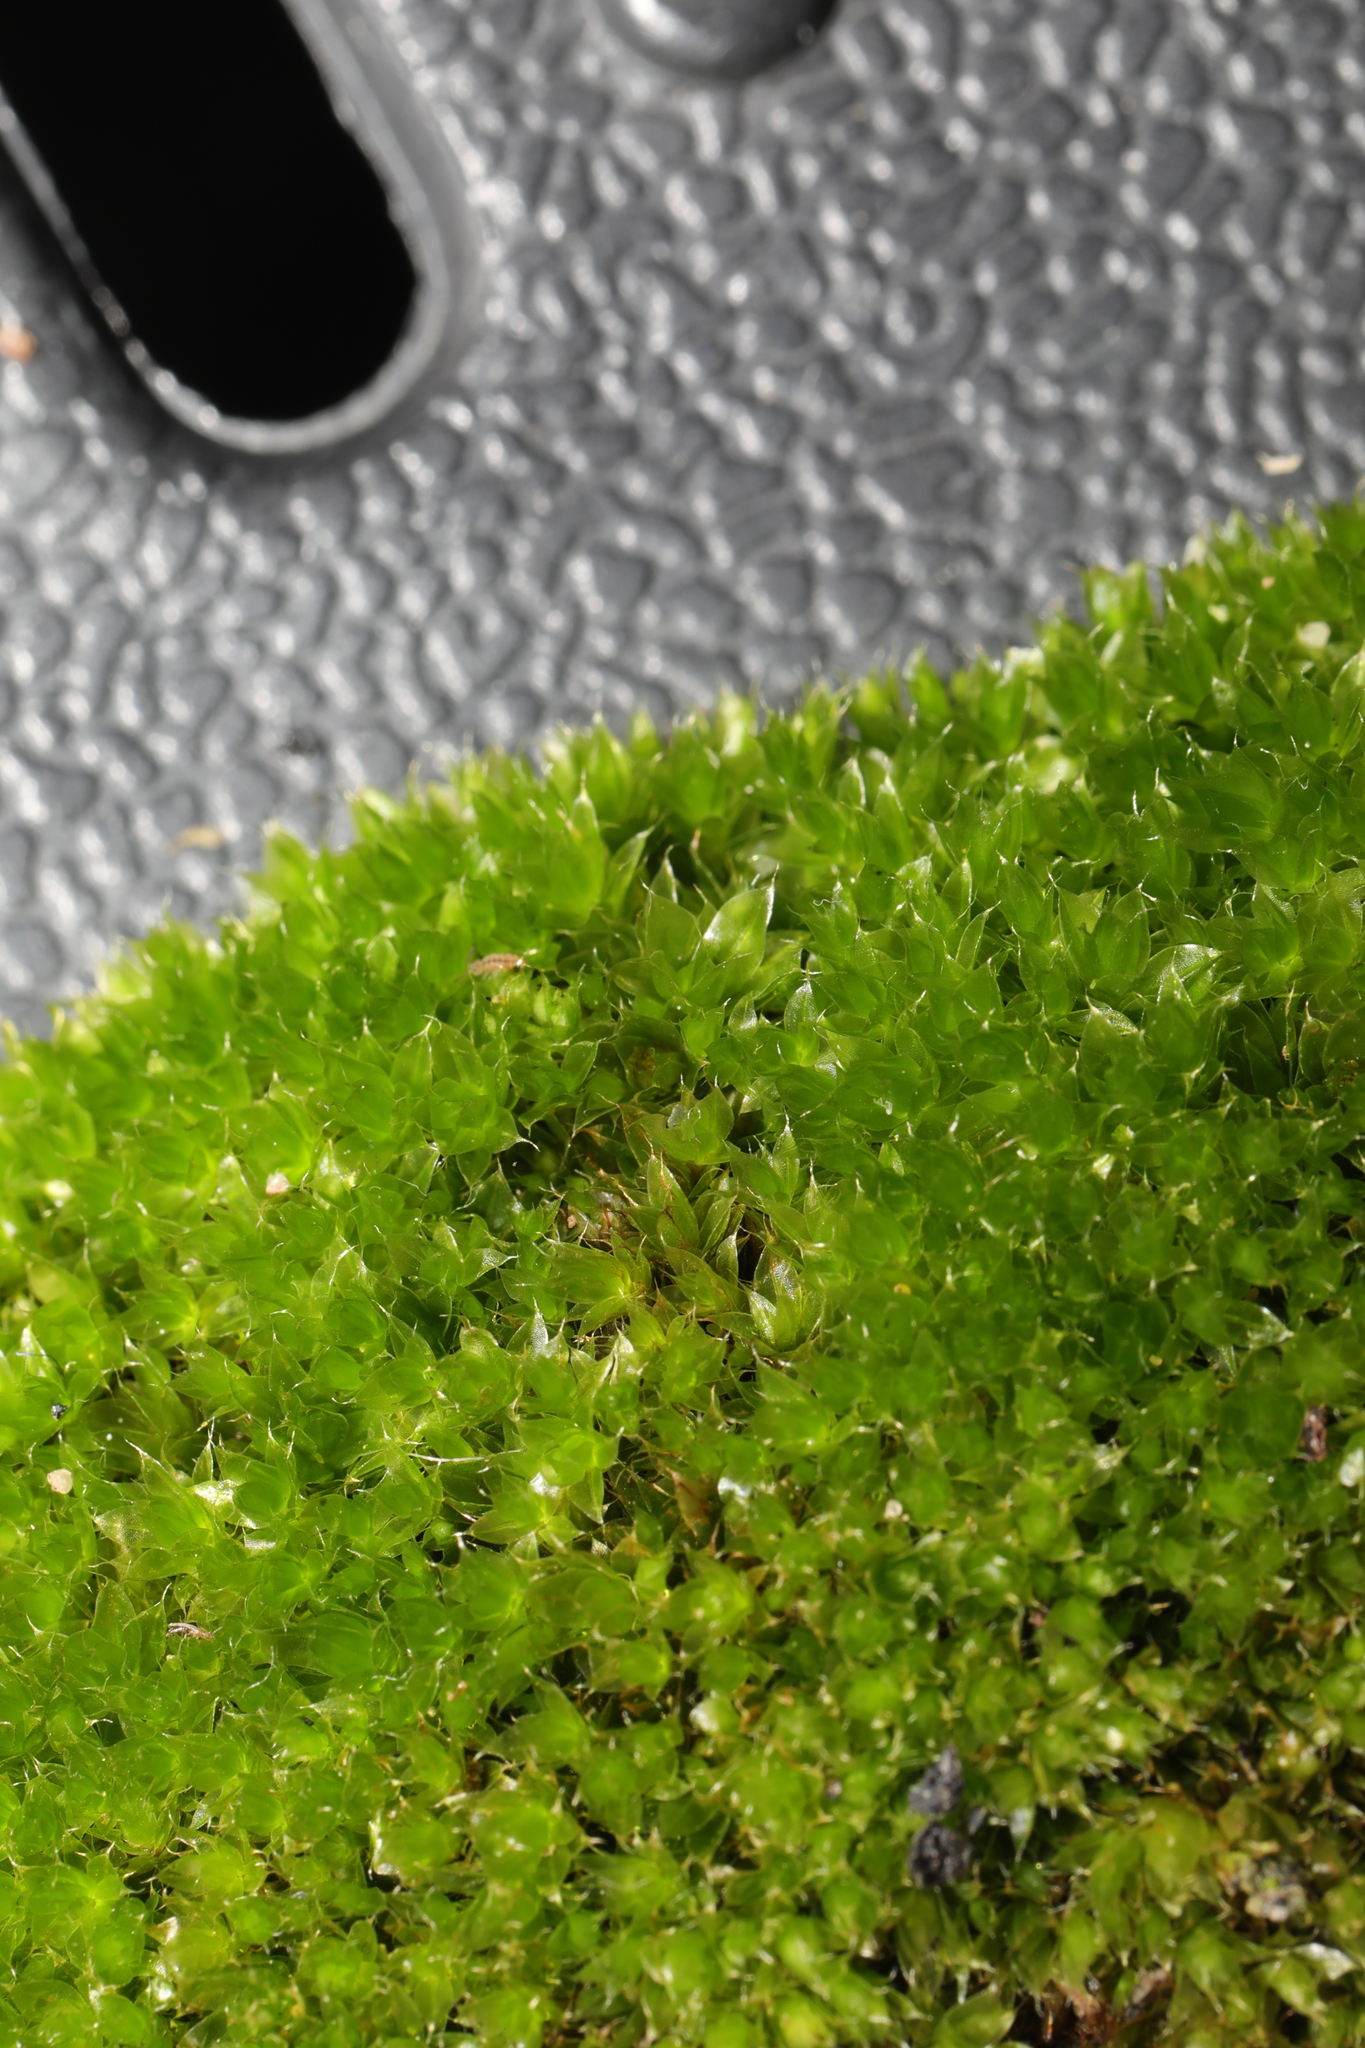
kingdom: Plantae
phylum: Bryophyta
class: Bryopsida
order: Bryales
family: Bryaceae
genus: Rosulabryum
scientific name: Rosulabryum capillare
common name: Capillary thread-moss
